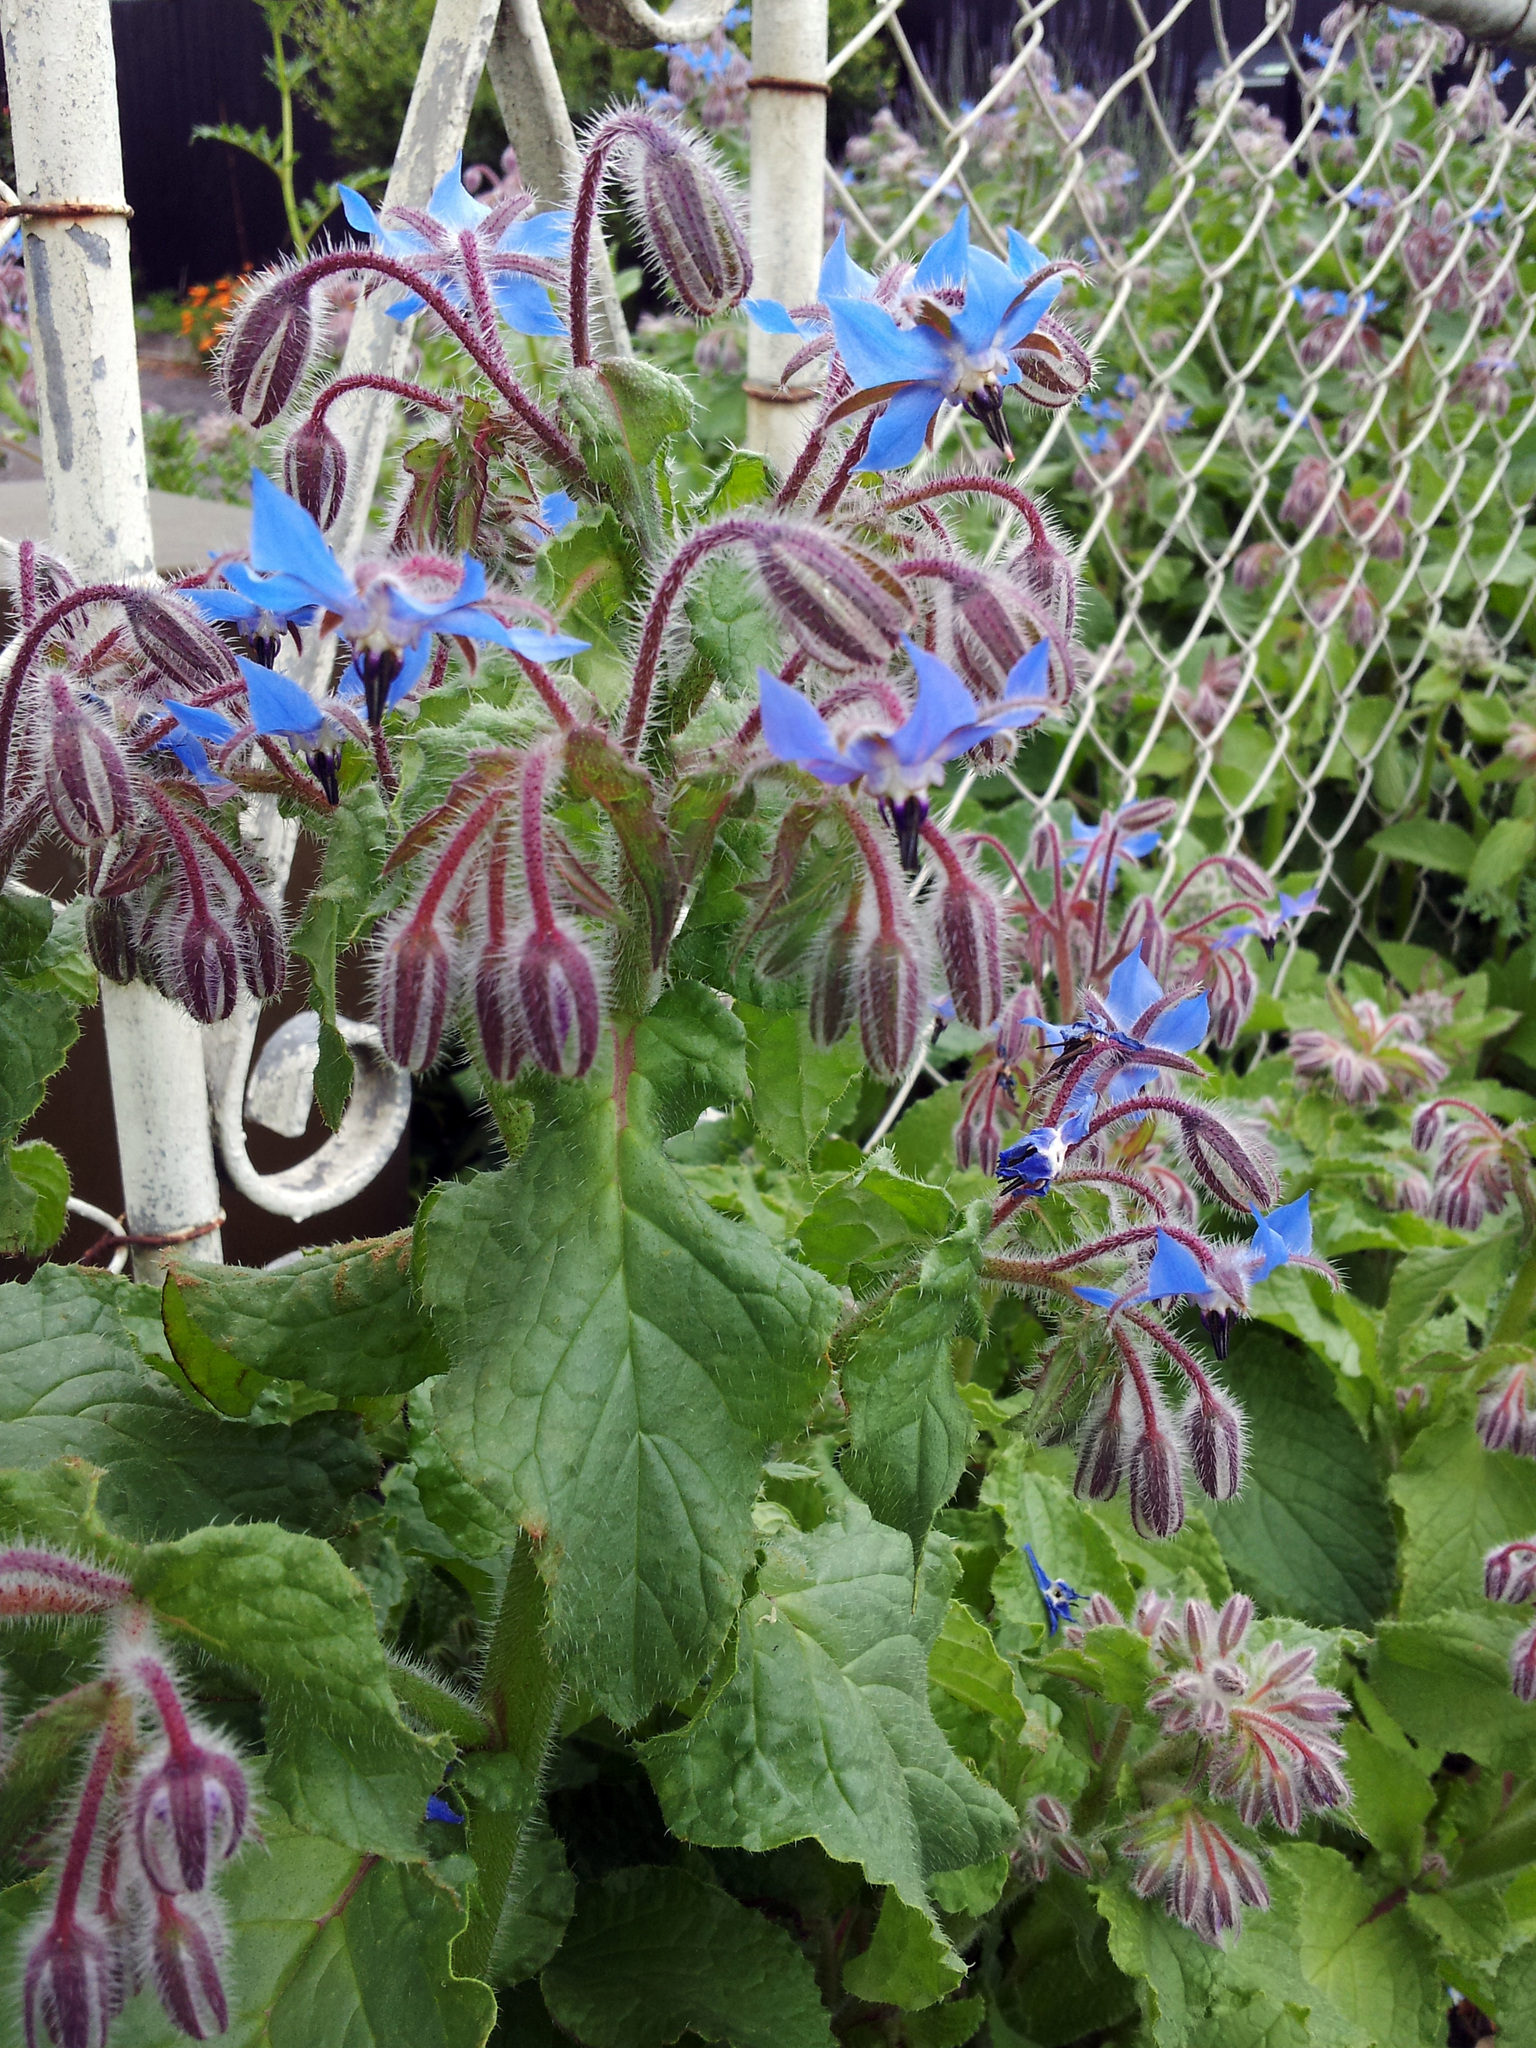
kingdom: Plantae
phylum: Tracheophyta
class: Magnoliopsida
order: Boraginales
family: Boraginaceae
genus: Borago
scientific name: Borago officinalis
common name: Borage
